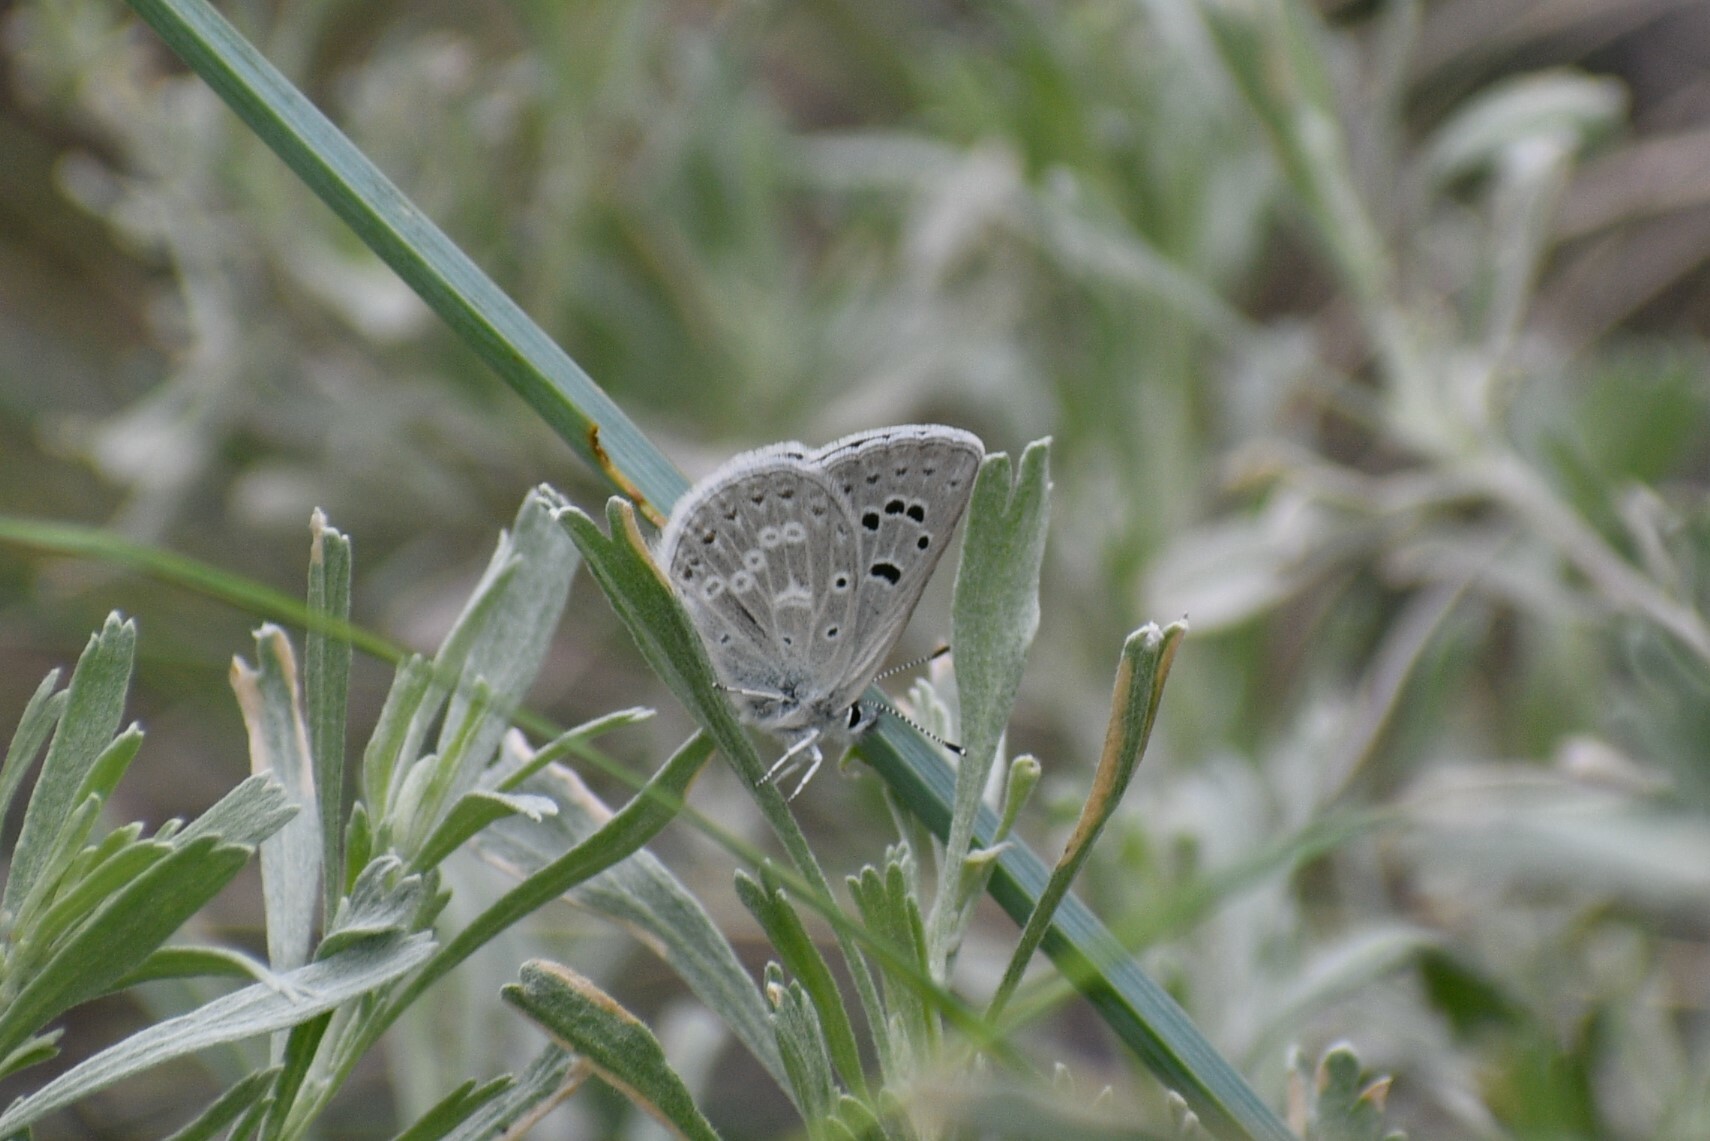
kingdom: Animalia
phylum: Arthropoda
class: Insecta
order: Lepidoptera
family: Lycaenidae
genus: Icaricia
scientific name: Icaricia icarioides
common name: Boisduval's blue
